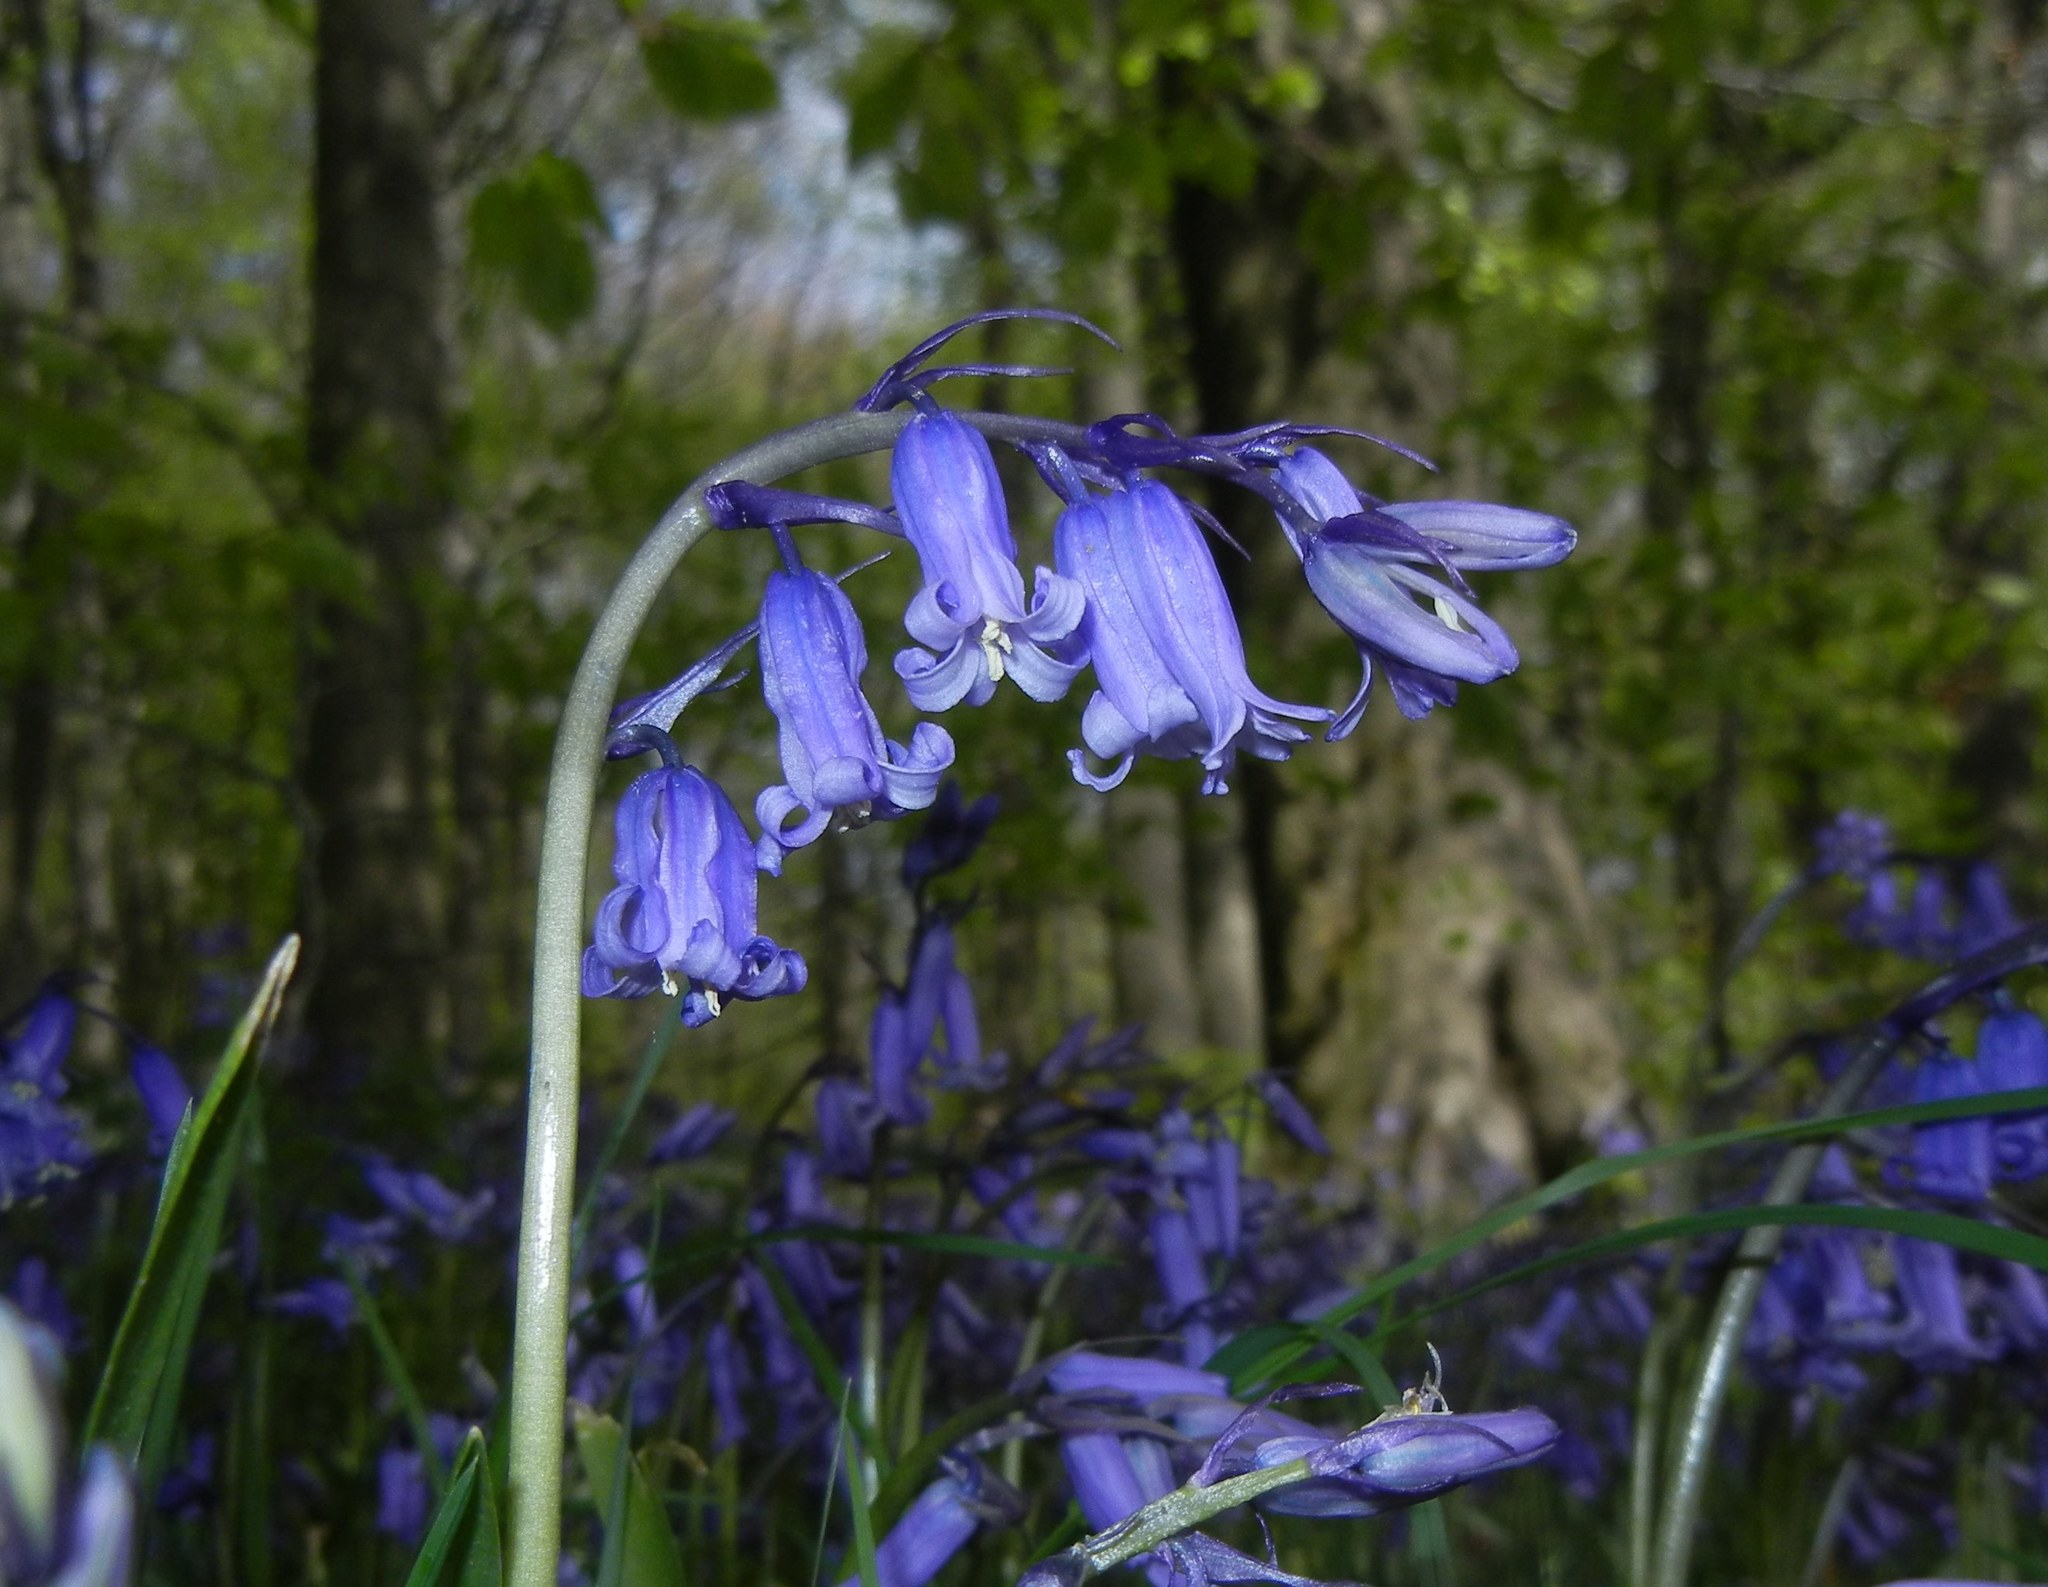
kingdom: Plantae
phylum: Tracheophyta
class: Liliopsida
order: Asparagales
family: Asparagaceae
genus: Hyacinthoides
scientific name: Hyacinthoides non-scripta
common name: Bluebell
